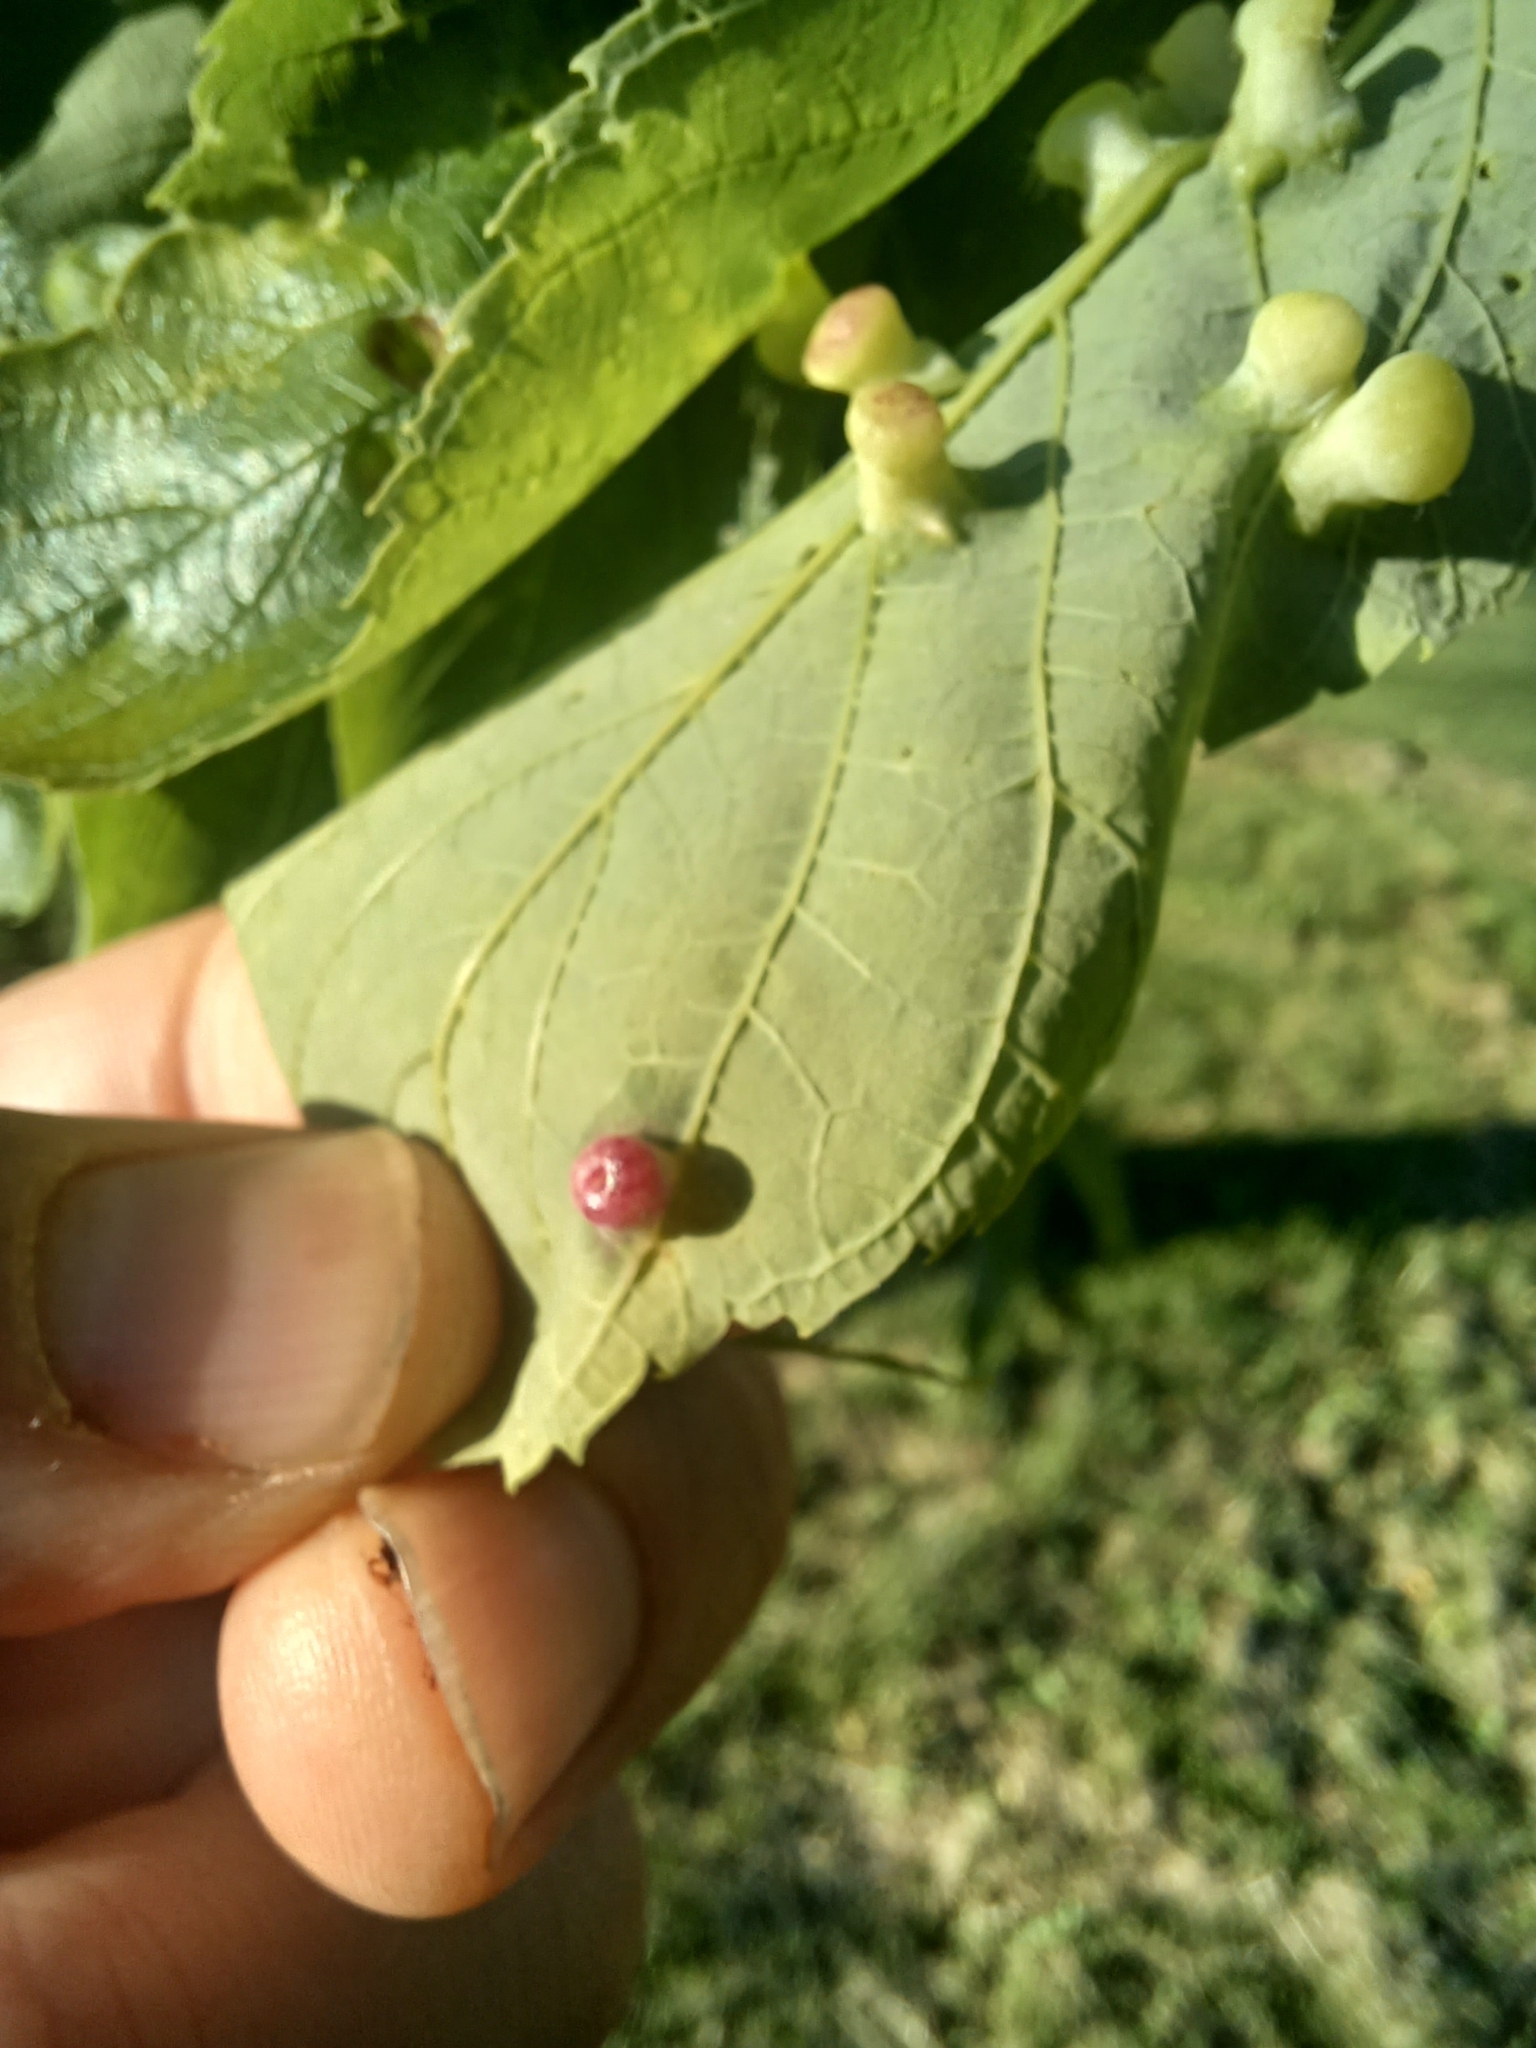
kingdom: Animalia
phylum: Arthropoda
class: Insecta
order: Hemiptera
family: Aphalaridae
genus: Pachypsylla
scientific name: Pachypsylla celtidismamma
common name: Hackberry nipplegall psyllid
